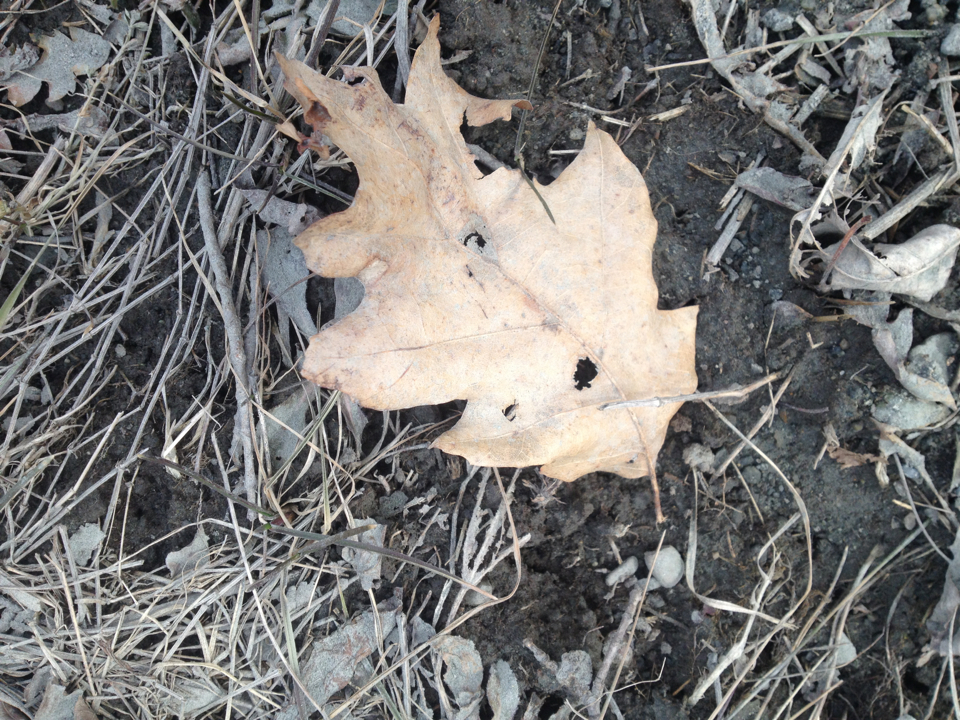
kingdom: Plantae
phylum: Tracheophyta
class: Magnoliopsida
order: Fagales
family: Fagaceae
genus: Quercus
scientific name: Quercus rubra
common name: Red oak
